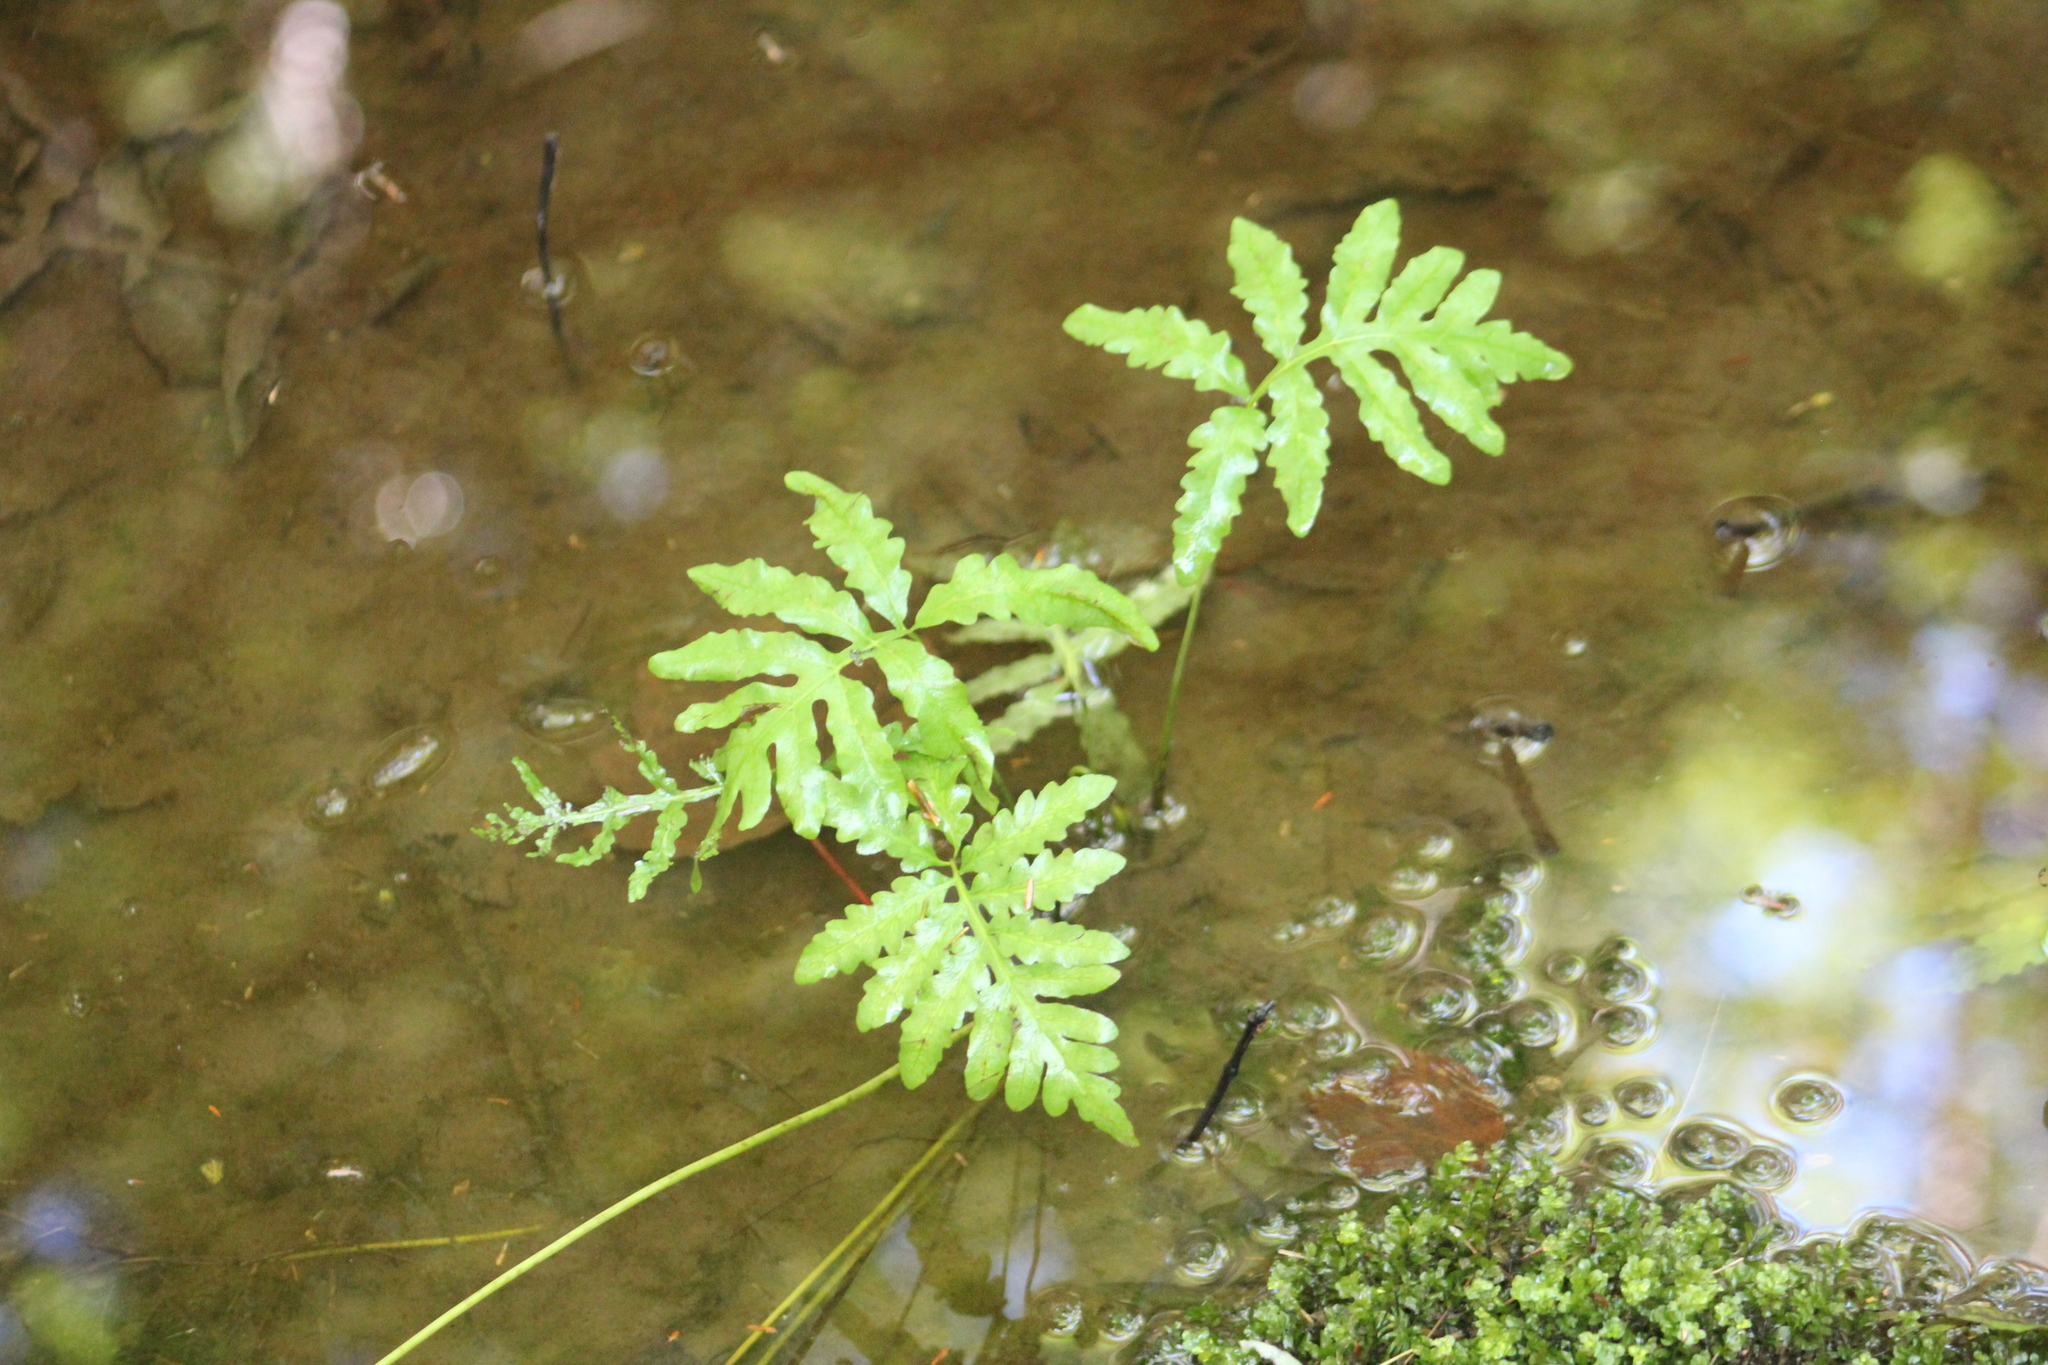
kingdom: Plantae
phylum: Tracheophyta
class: Polypodiopsida
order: Polypodiales
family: Onocleaceae
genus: Onoclea
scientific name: Onoclea sensibilis
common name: Sensitive fern
